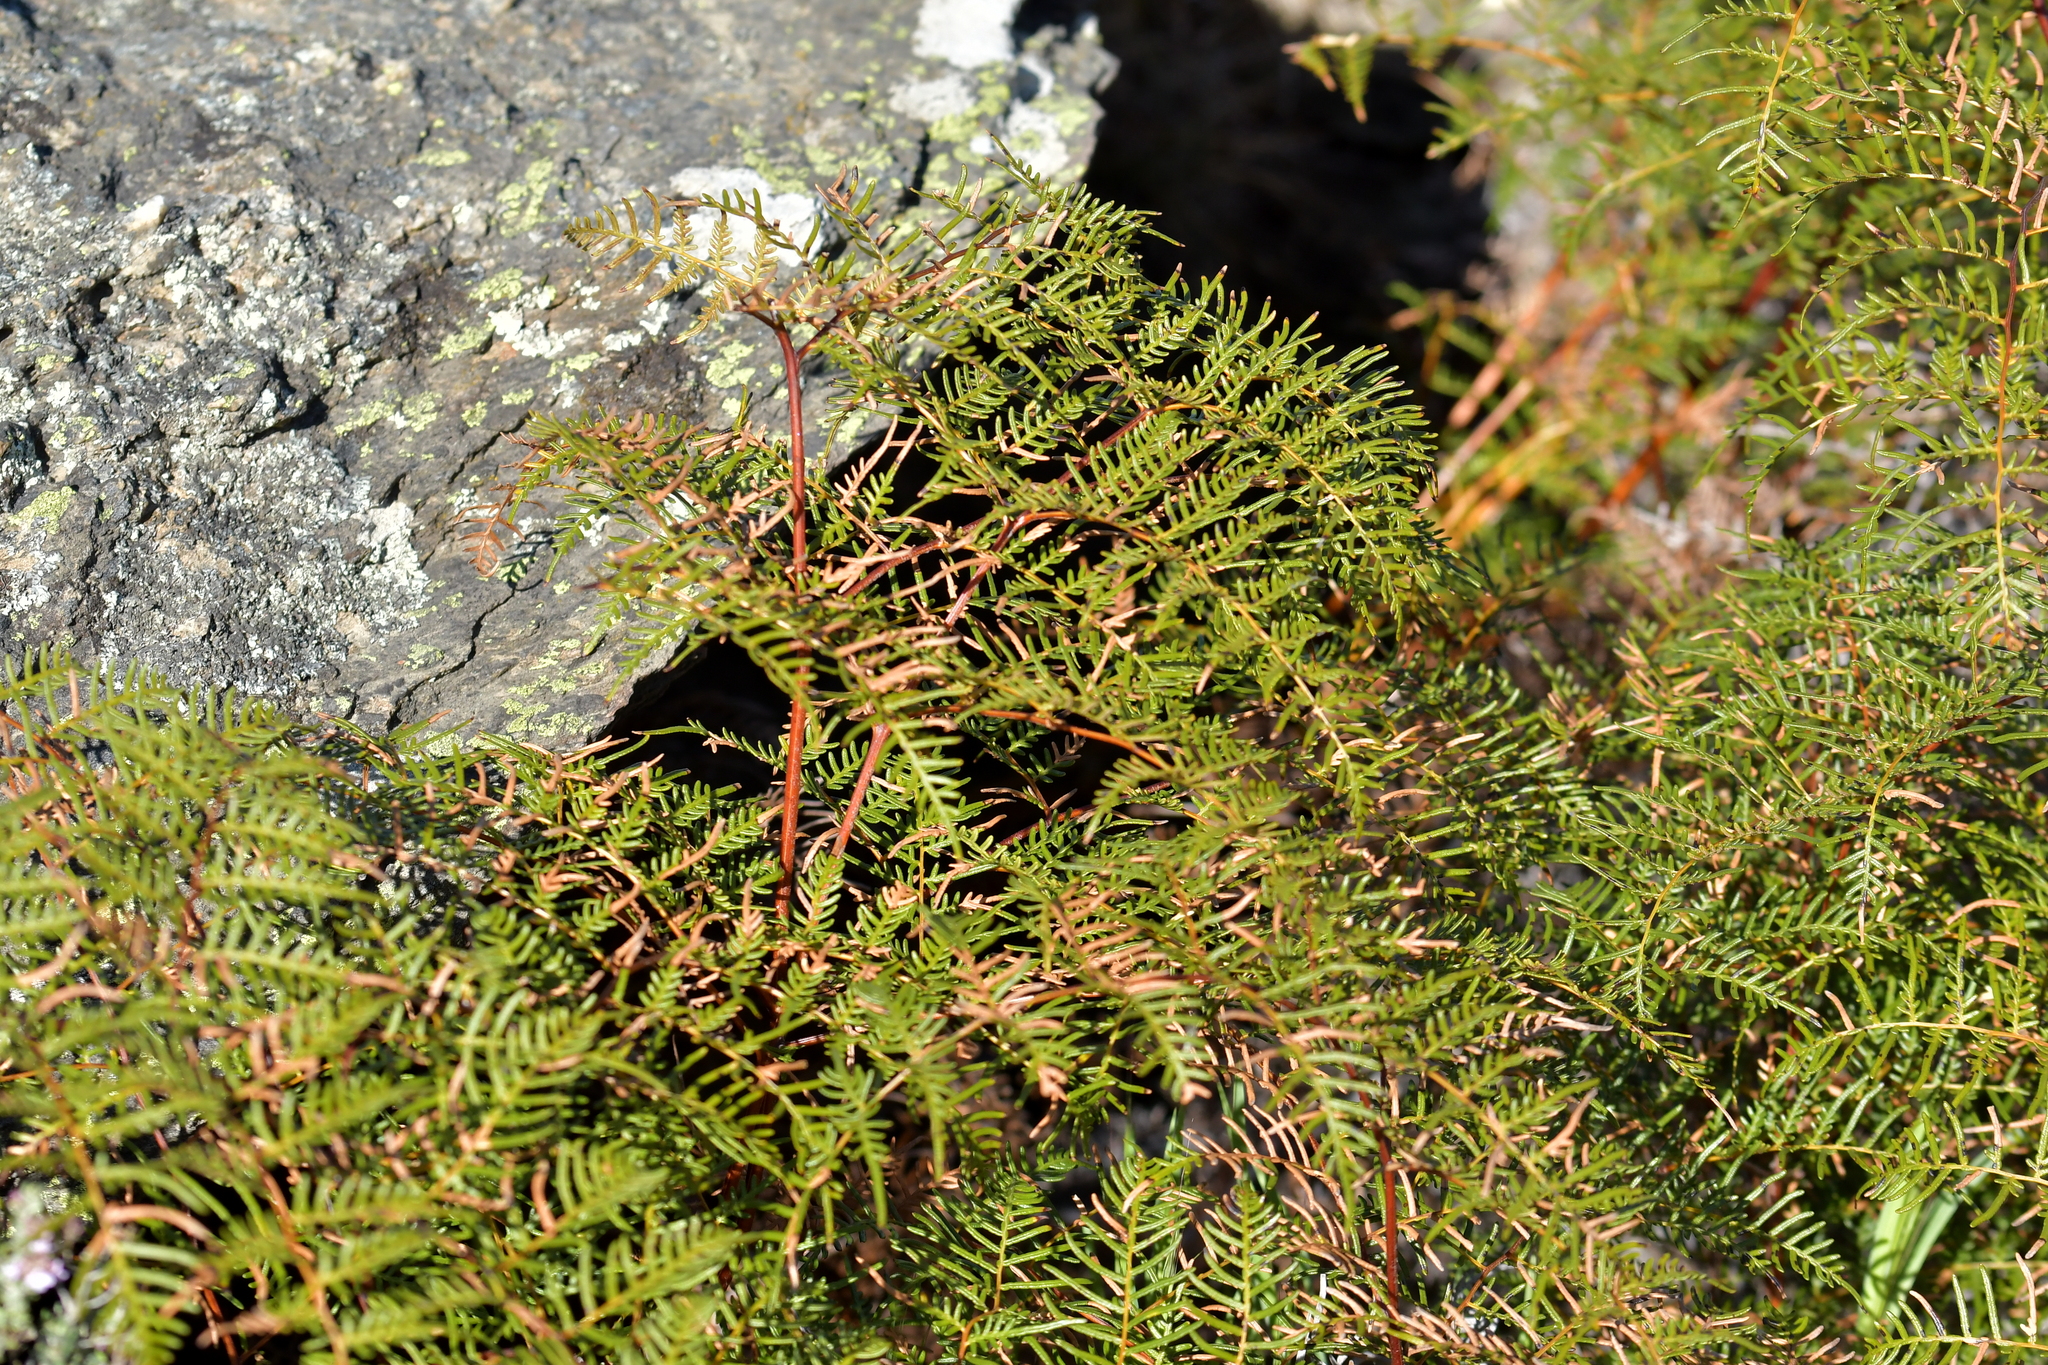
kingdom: Plantae
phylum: Tracheophyta
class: Polypodiopsida
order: Polypodiales
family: Dennstaedtiaceae
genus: Pteridium
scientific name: Pteridium esculentum
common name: Bracken fern
